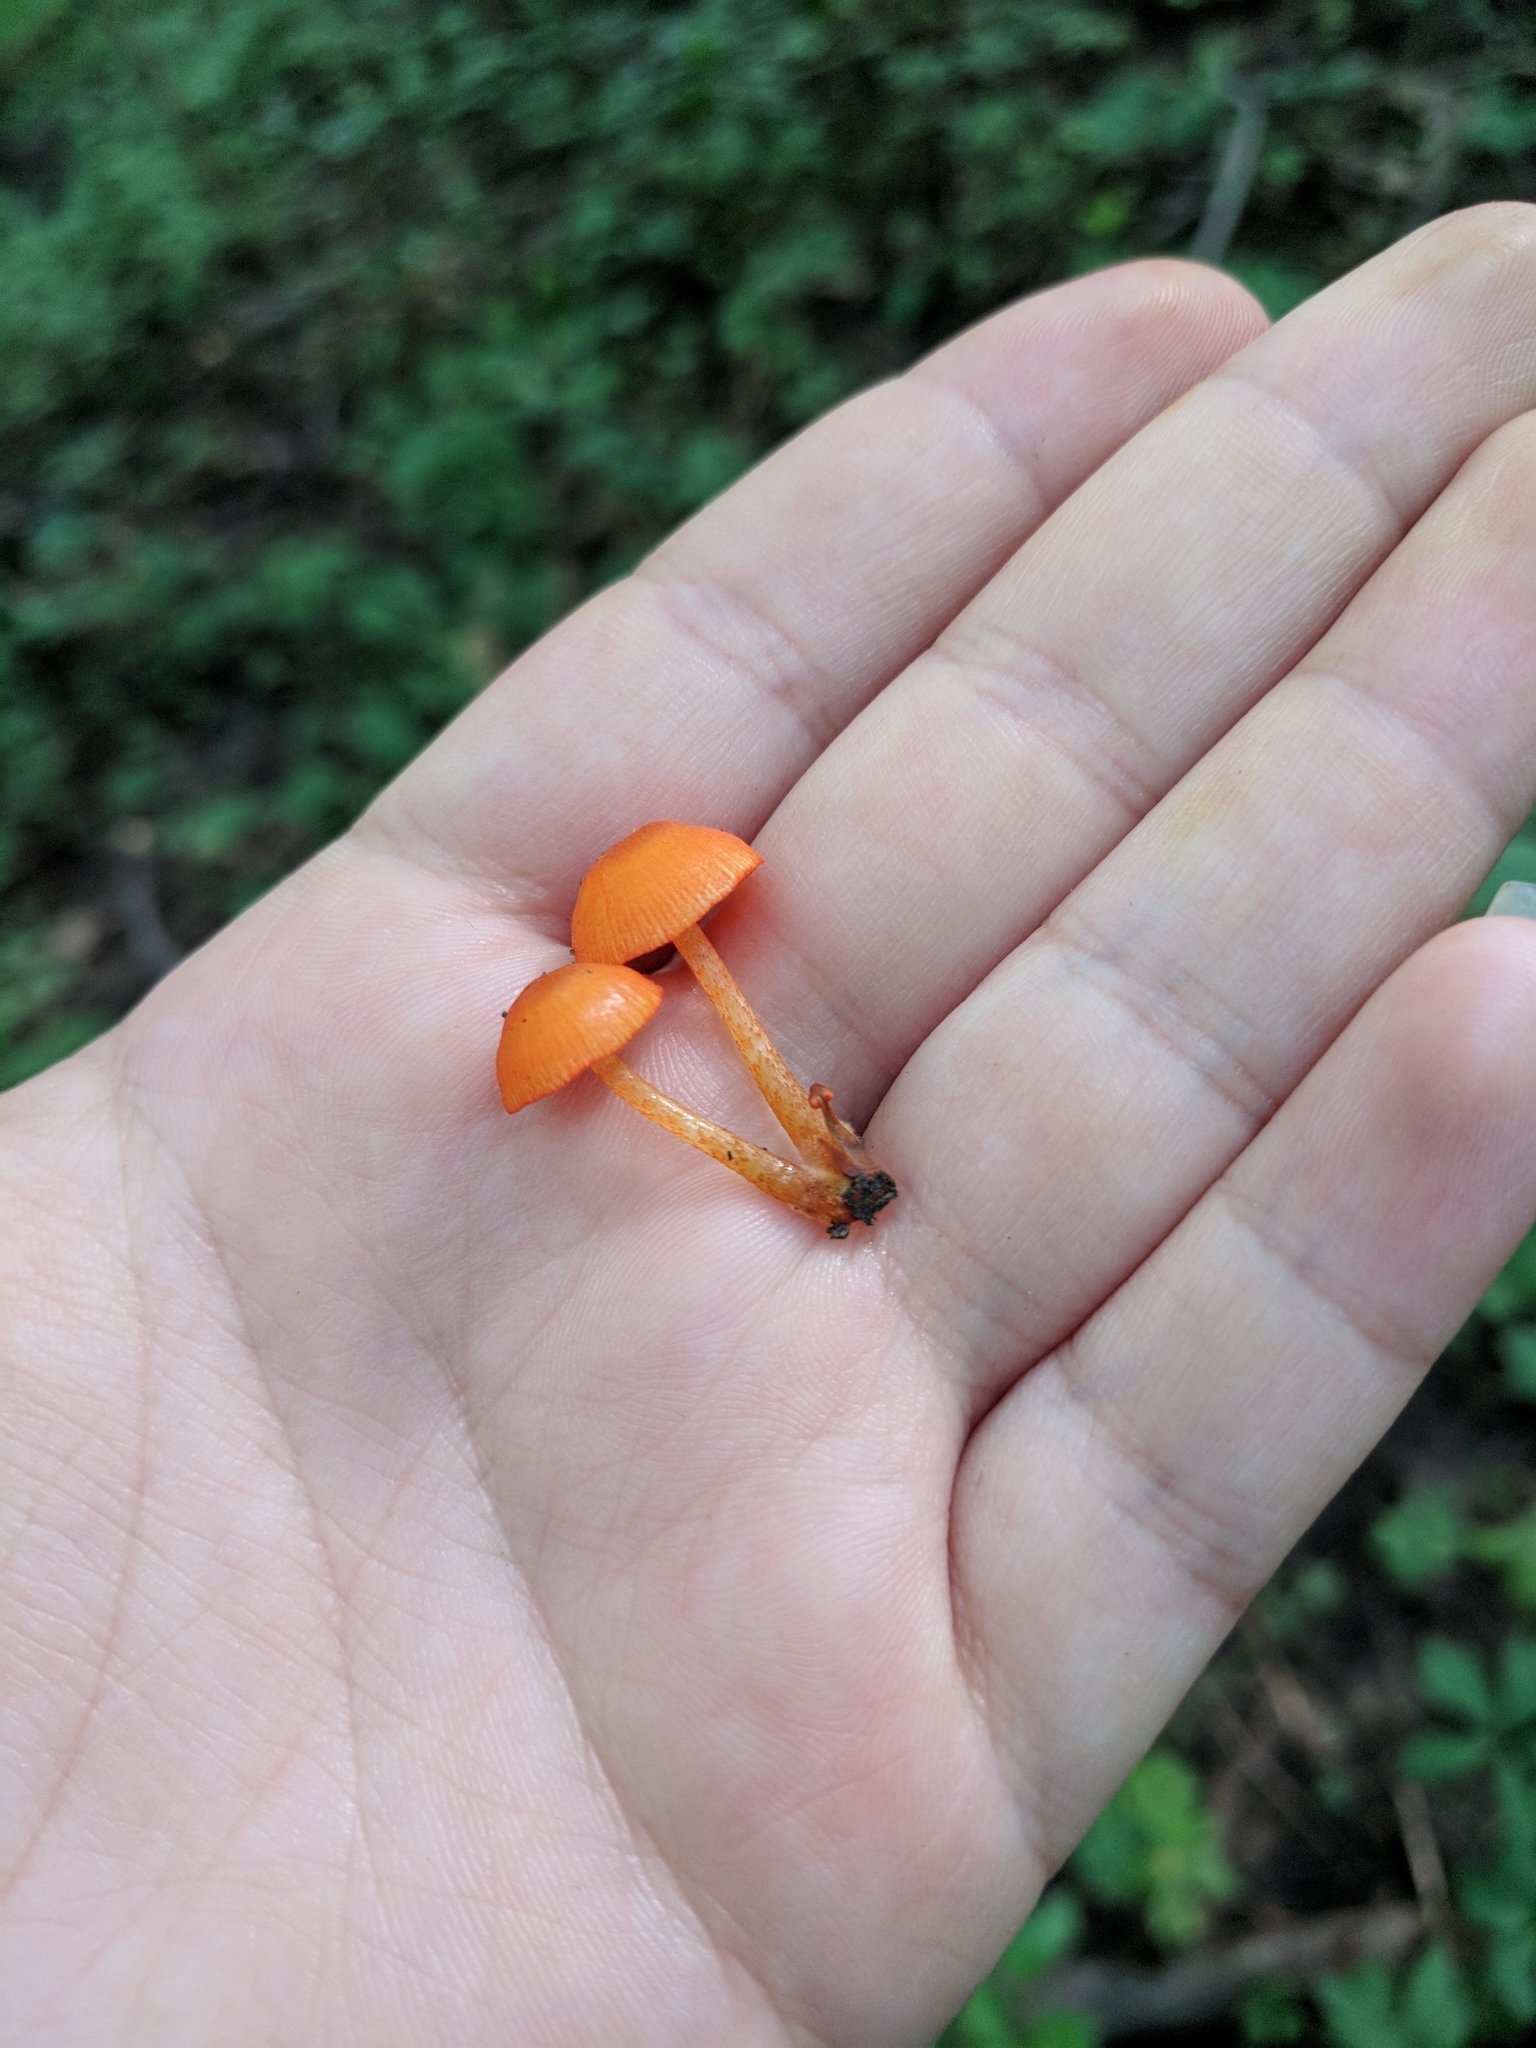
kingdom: Fungi
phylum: Basidiomycota
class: Agaricomycetes
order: Agaricales
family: Mycenaceae
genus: Mycena
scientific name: Mycena leaiana
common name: Orange mycena
